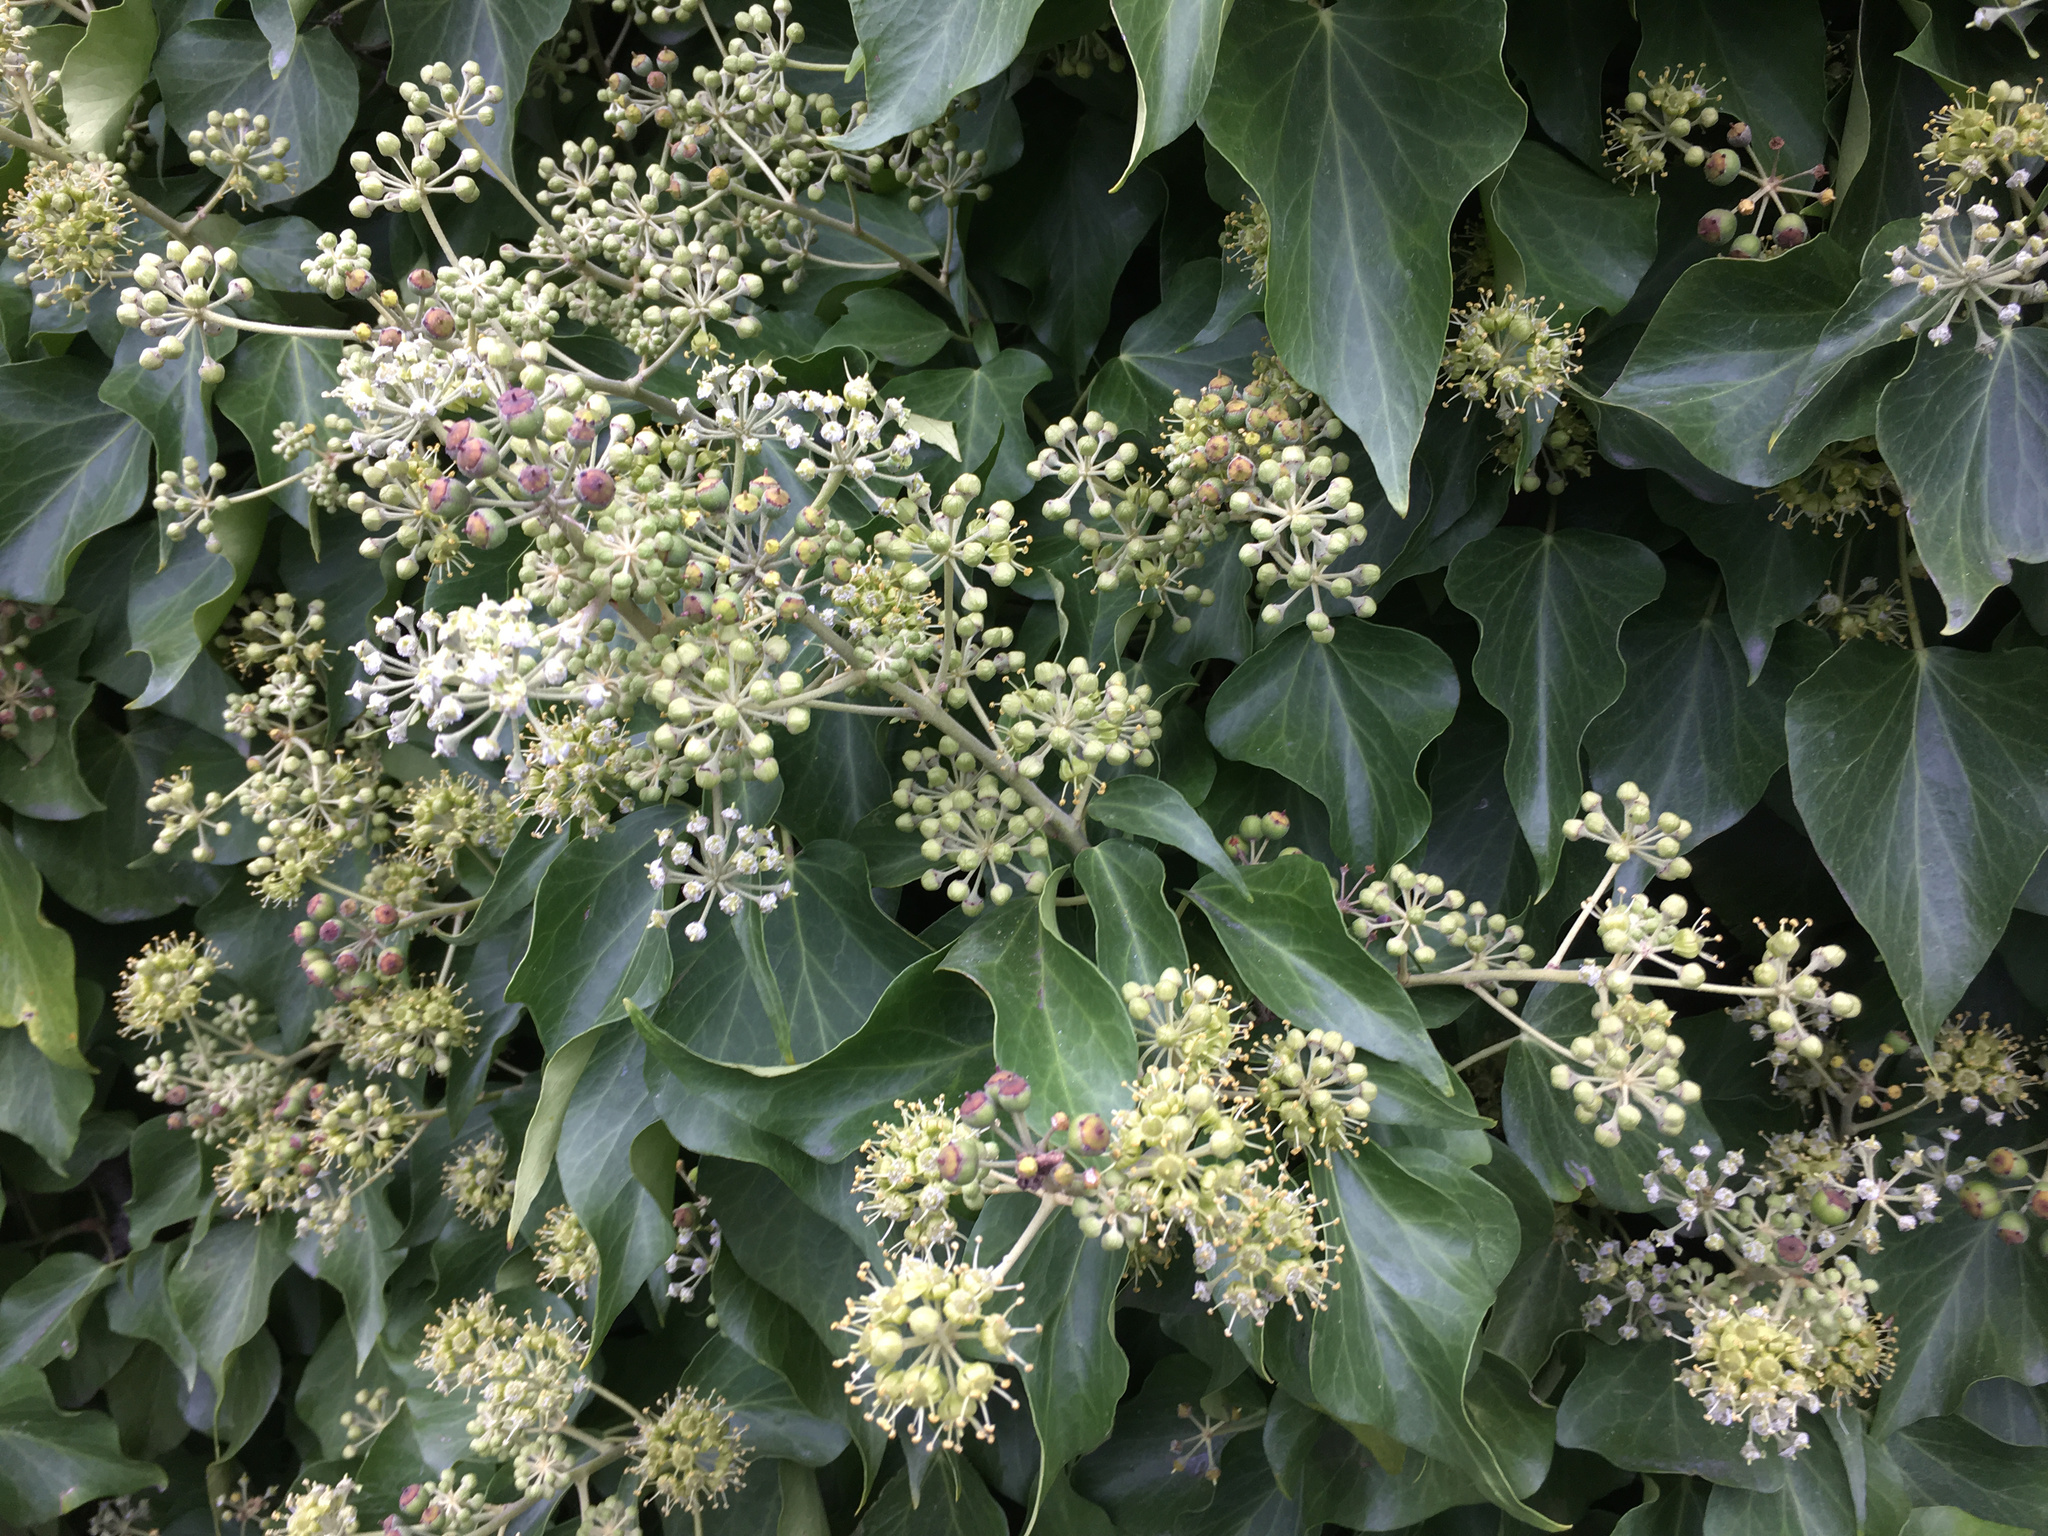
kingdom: Plantae
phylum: Tracheophyta
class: Magnoliopsida
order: Apiales
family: Araliaceae
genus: Hedera
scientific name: Hedera helix
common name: Ivy
